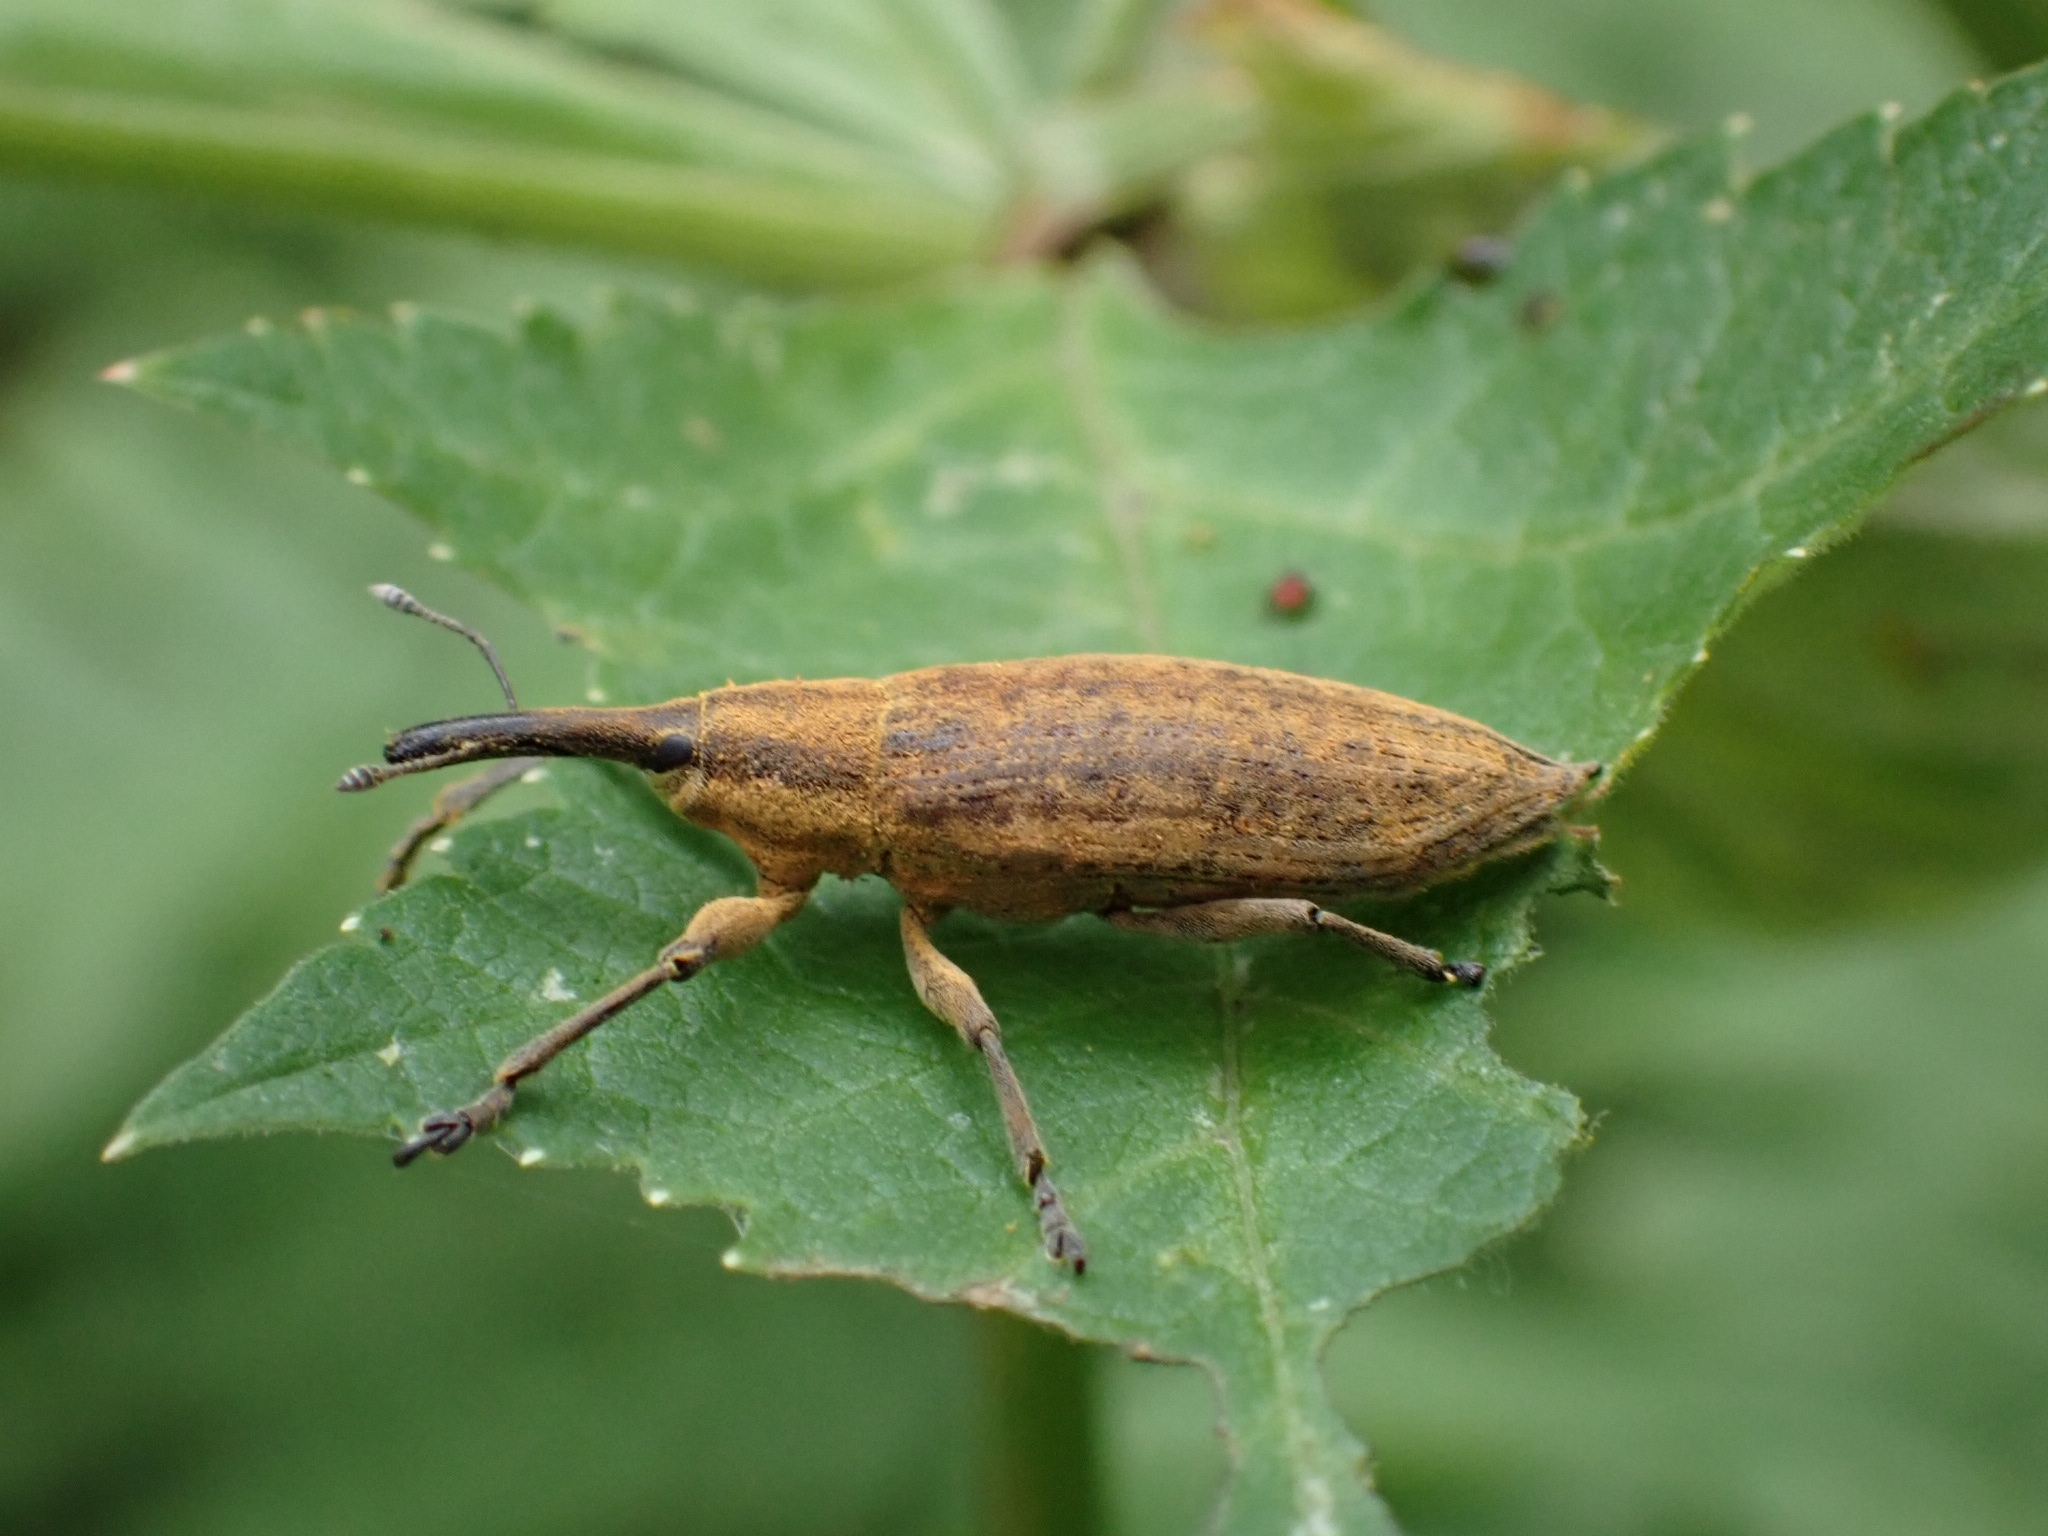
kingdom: Animalia
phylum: Arthropoda
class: Insecta
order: Coleoptera
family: Curculionidae
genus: Lixus
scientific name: Lixus iridis
